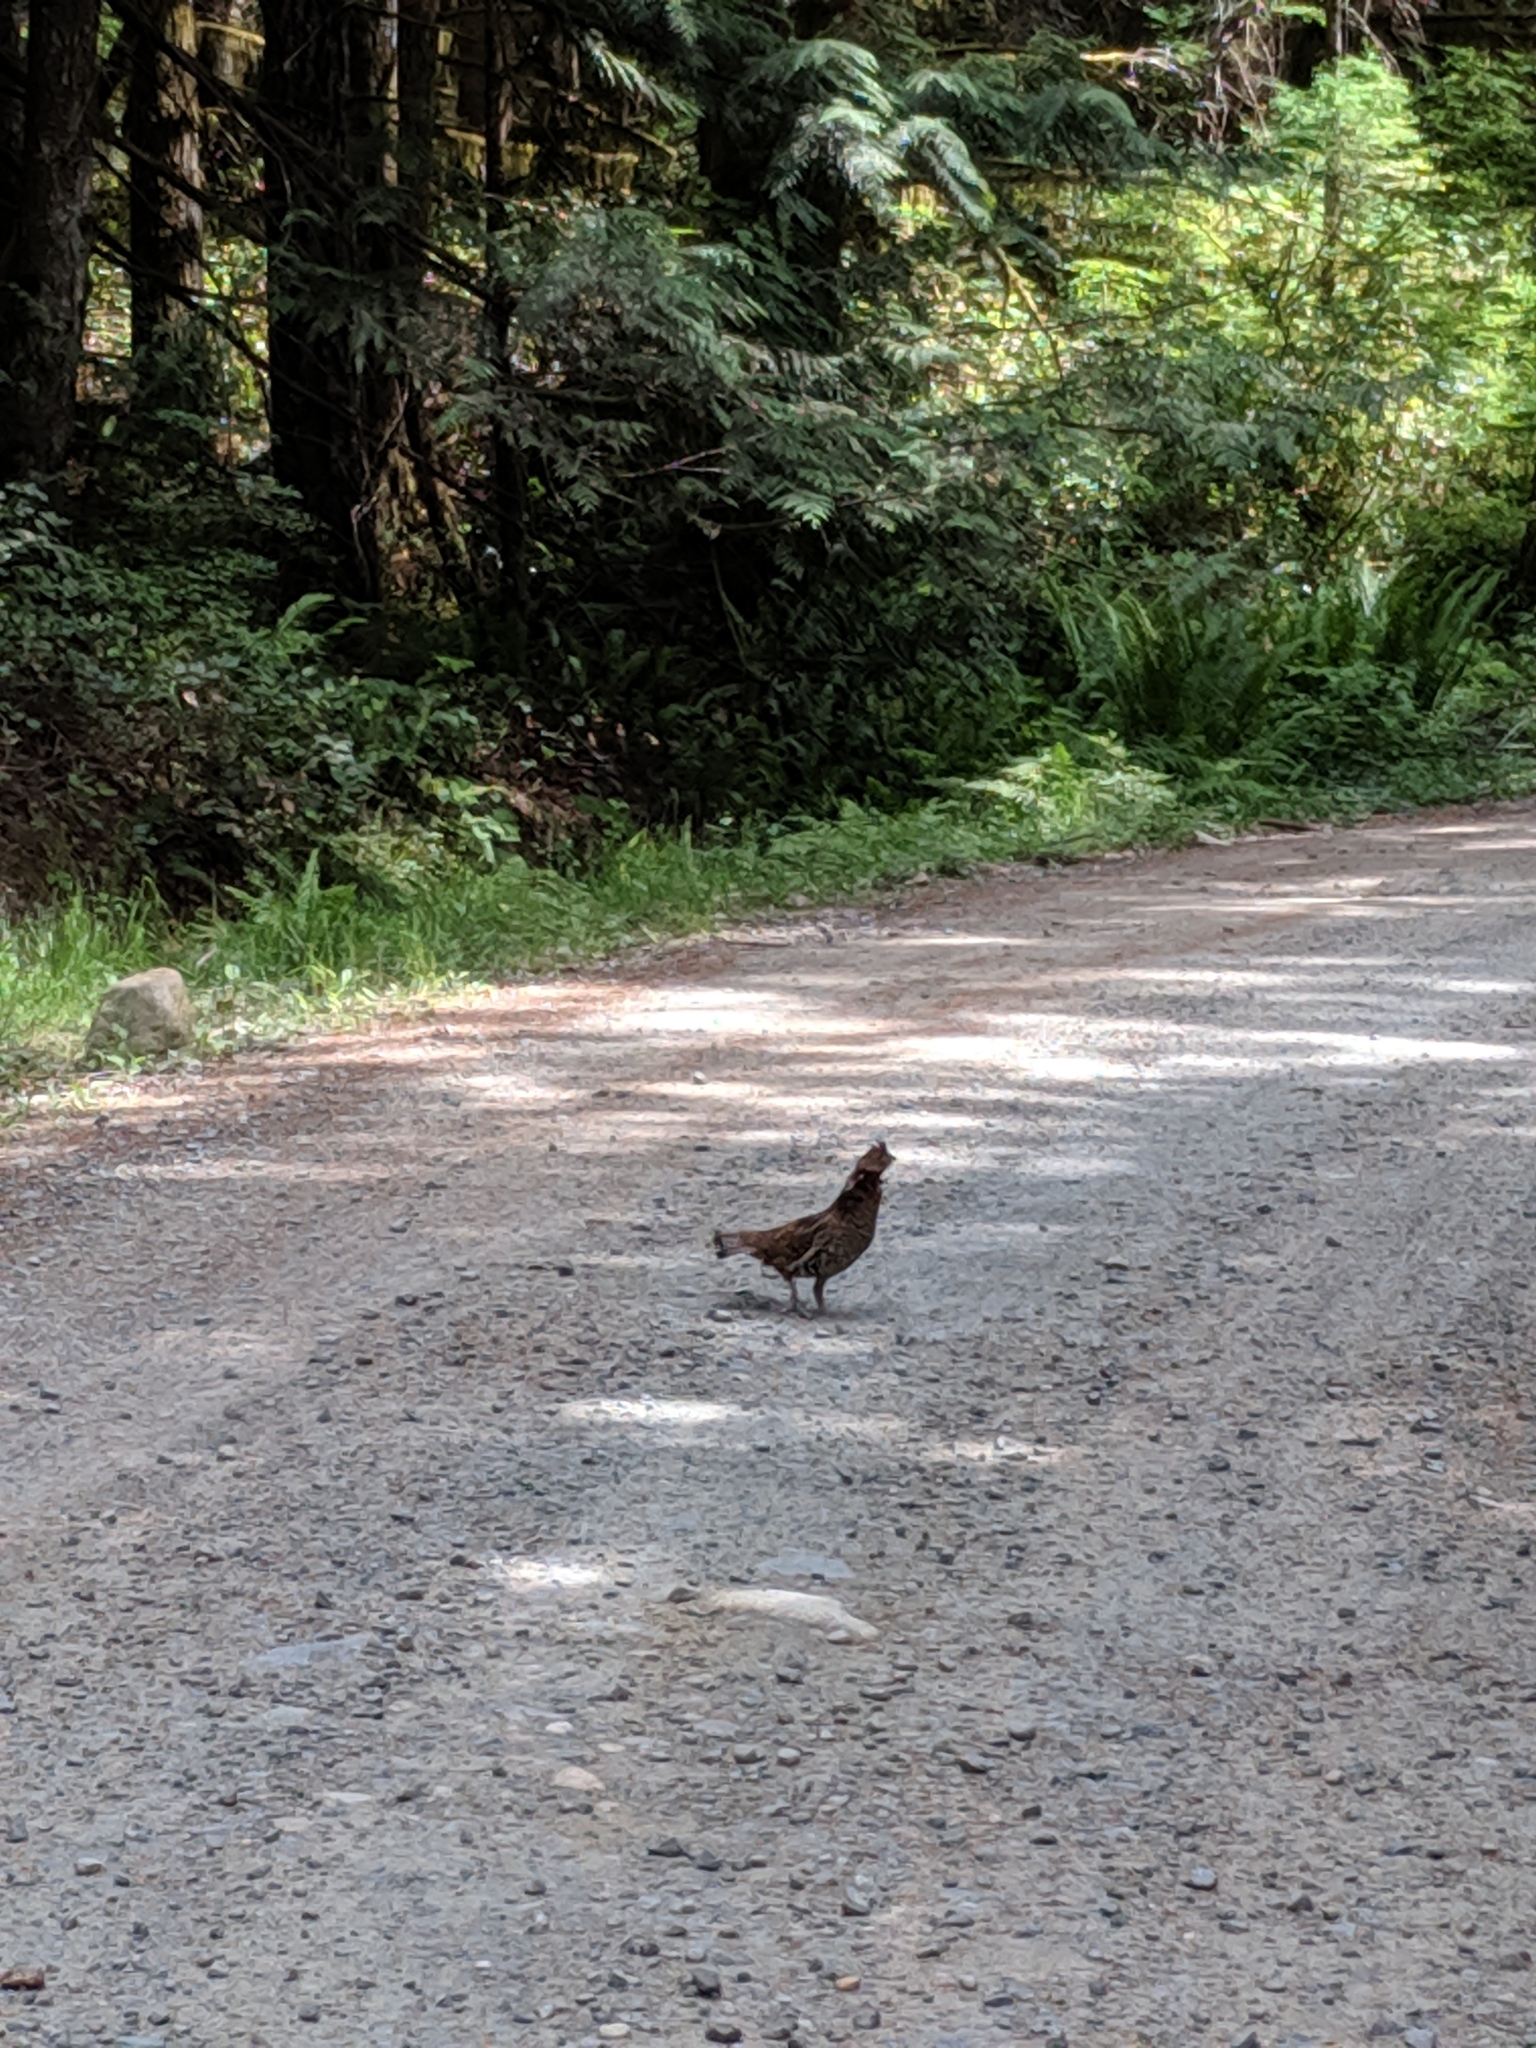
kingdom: Animalia
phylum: Chordata
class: Aves
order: Galliformes
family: Phasianidae
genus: Bonasa
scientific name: Bonasa umbellus
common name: Ruffed grouse
